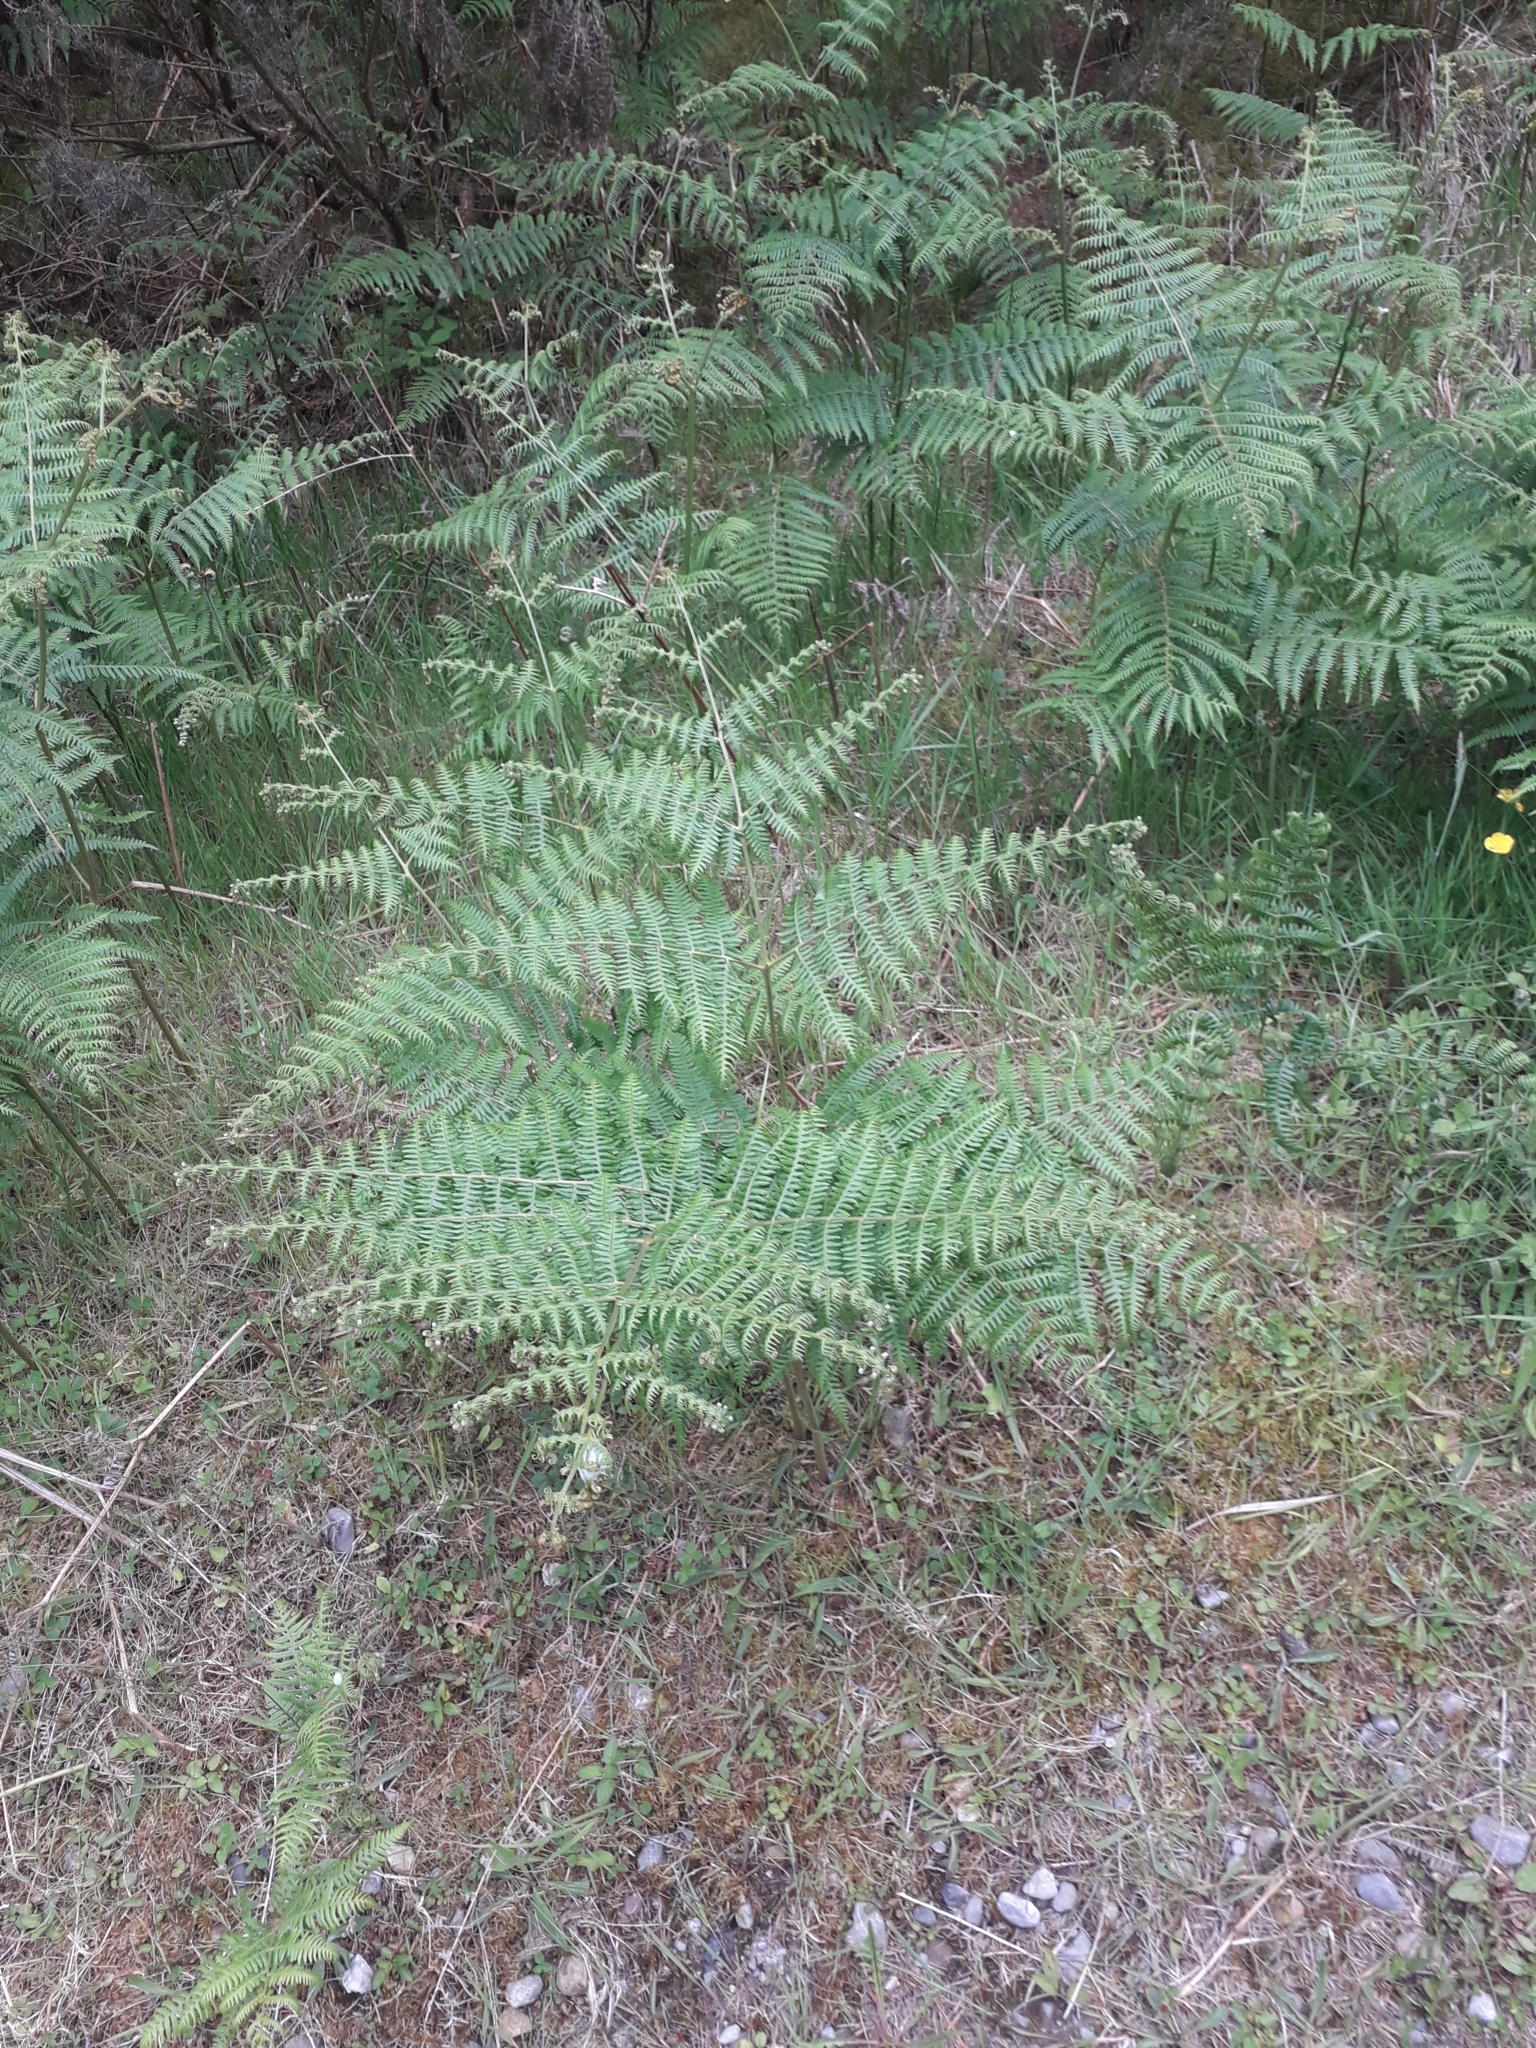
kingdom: Plantae
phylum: Tracheophyta
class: Polypodiopsida
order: Polypodiales
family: Dennstaedtiaceae
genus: Pteridium
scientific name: Pteridium aquilinum
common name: Bracken
